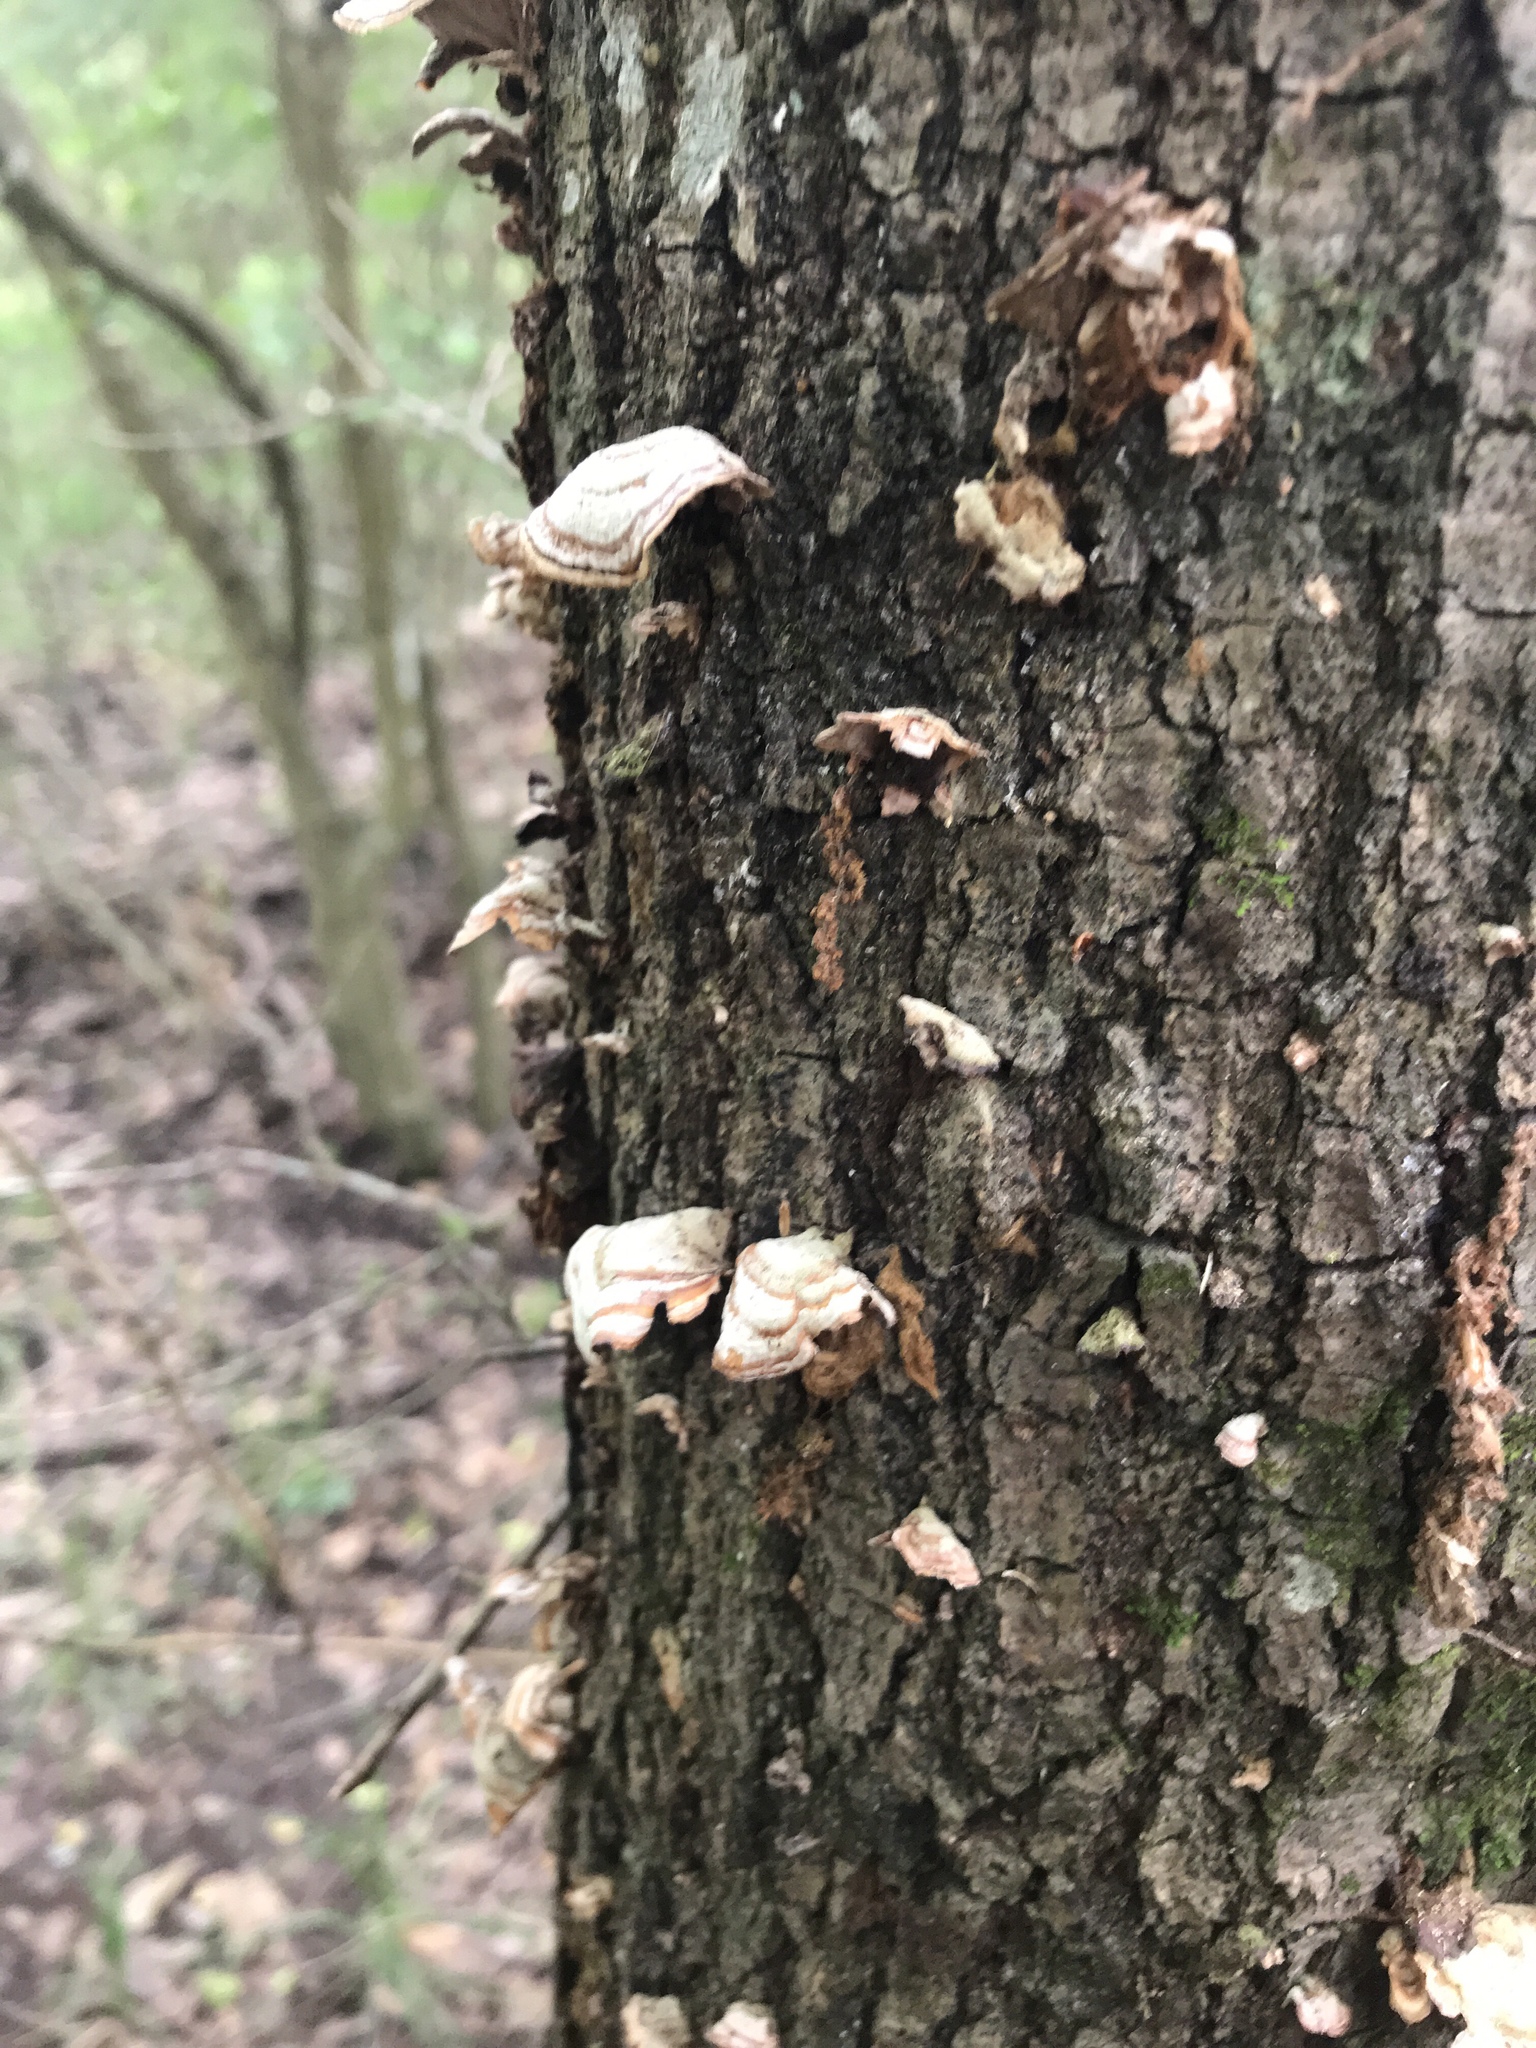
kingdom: Fungi
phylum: Basidiomycota
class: Agaricomycetes
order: Russulales
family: Stereaceae
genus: Stereum
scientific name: Stereum ostrea
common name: False turkeytail
